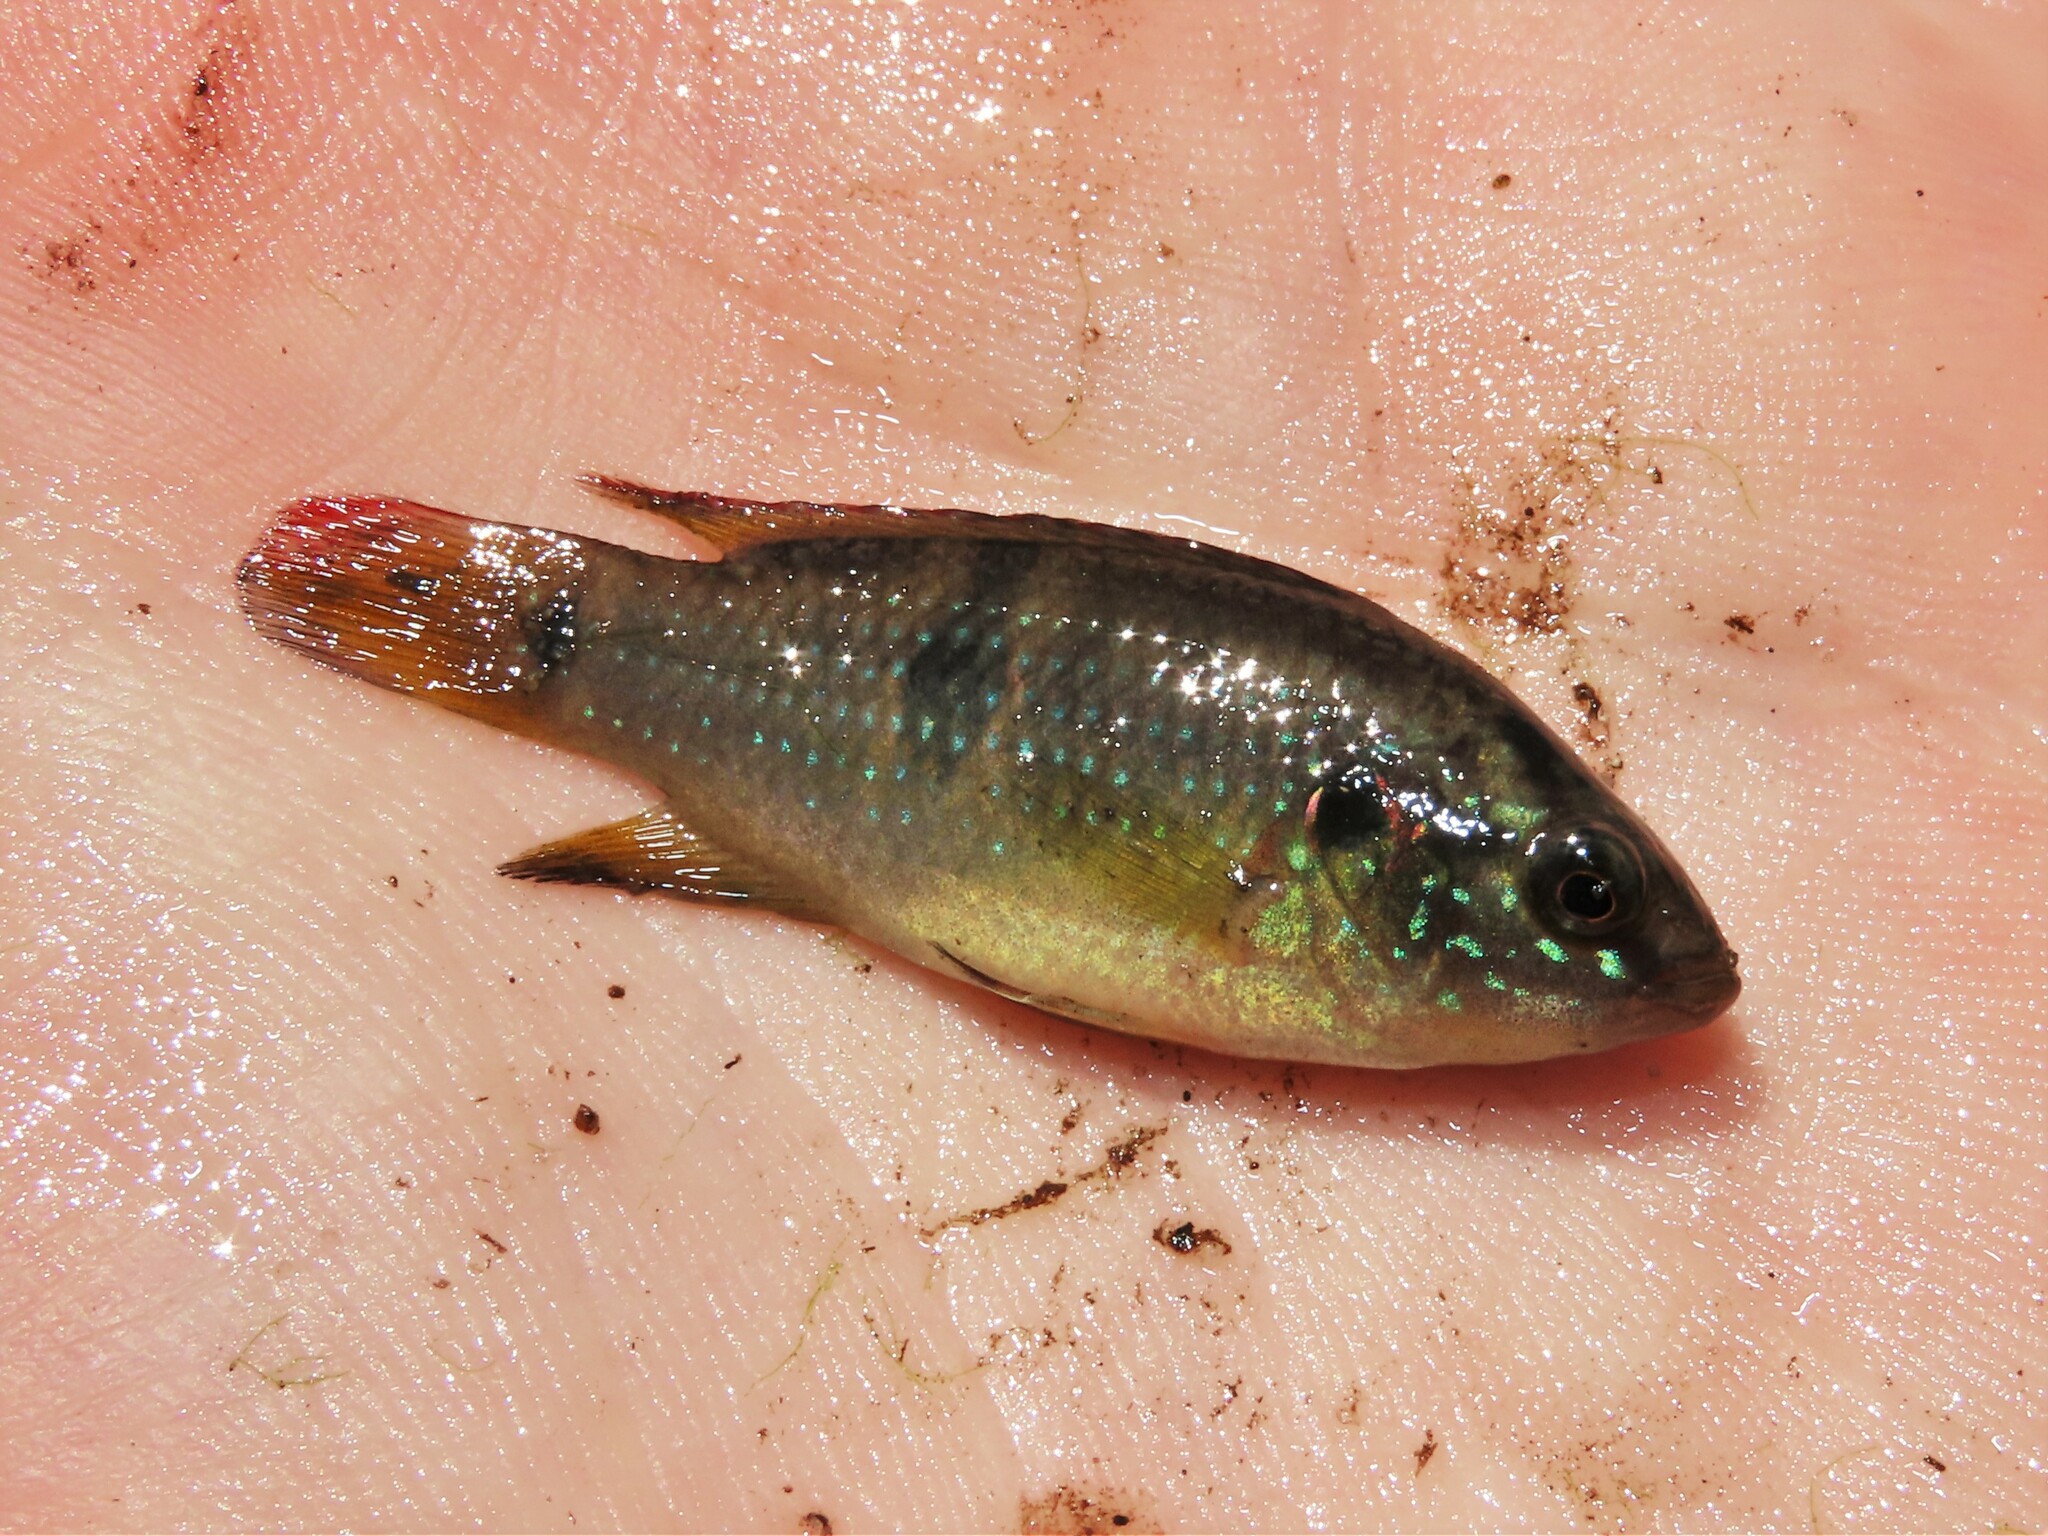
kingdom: Animalia
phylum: Chordata
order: Perciformes
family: Cichlidae
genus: Rubricatochromis
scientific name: Rubricatochromis
